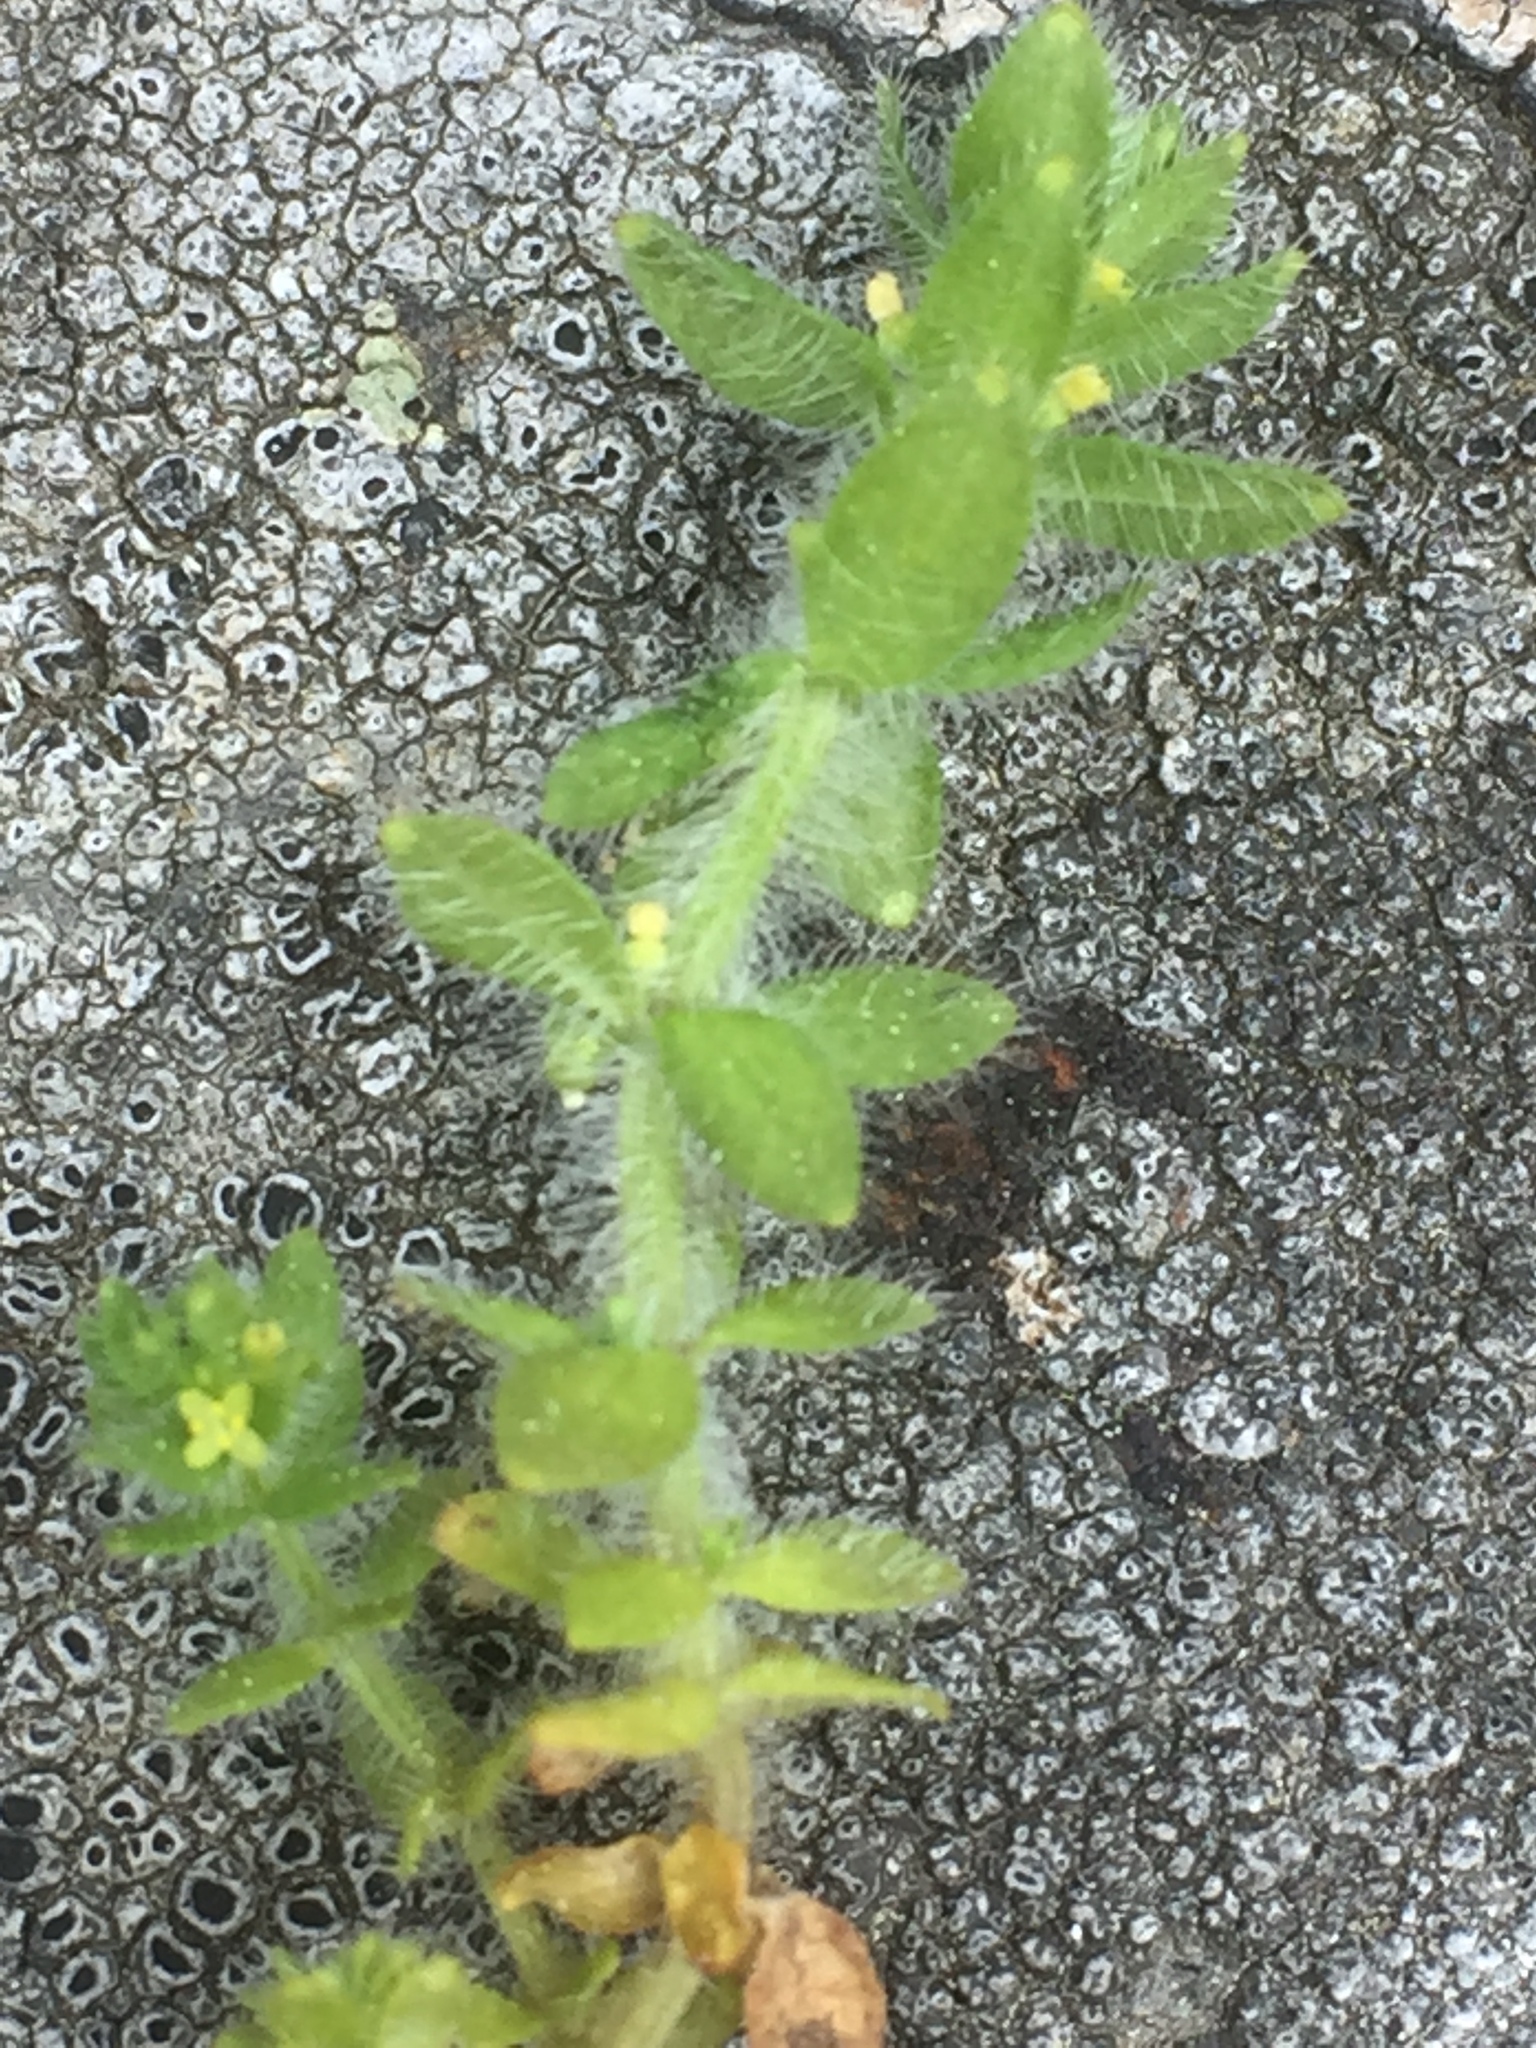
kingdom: Plantae
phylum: Tracheophyta
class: Magnoliopsida
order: Gentianales
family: Rubiaceae
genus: Cruciata
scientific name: Cruciata laevipes
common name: Crosswort
